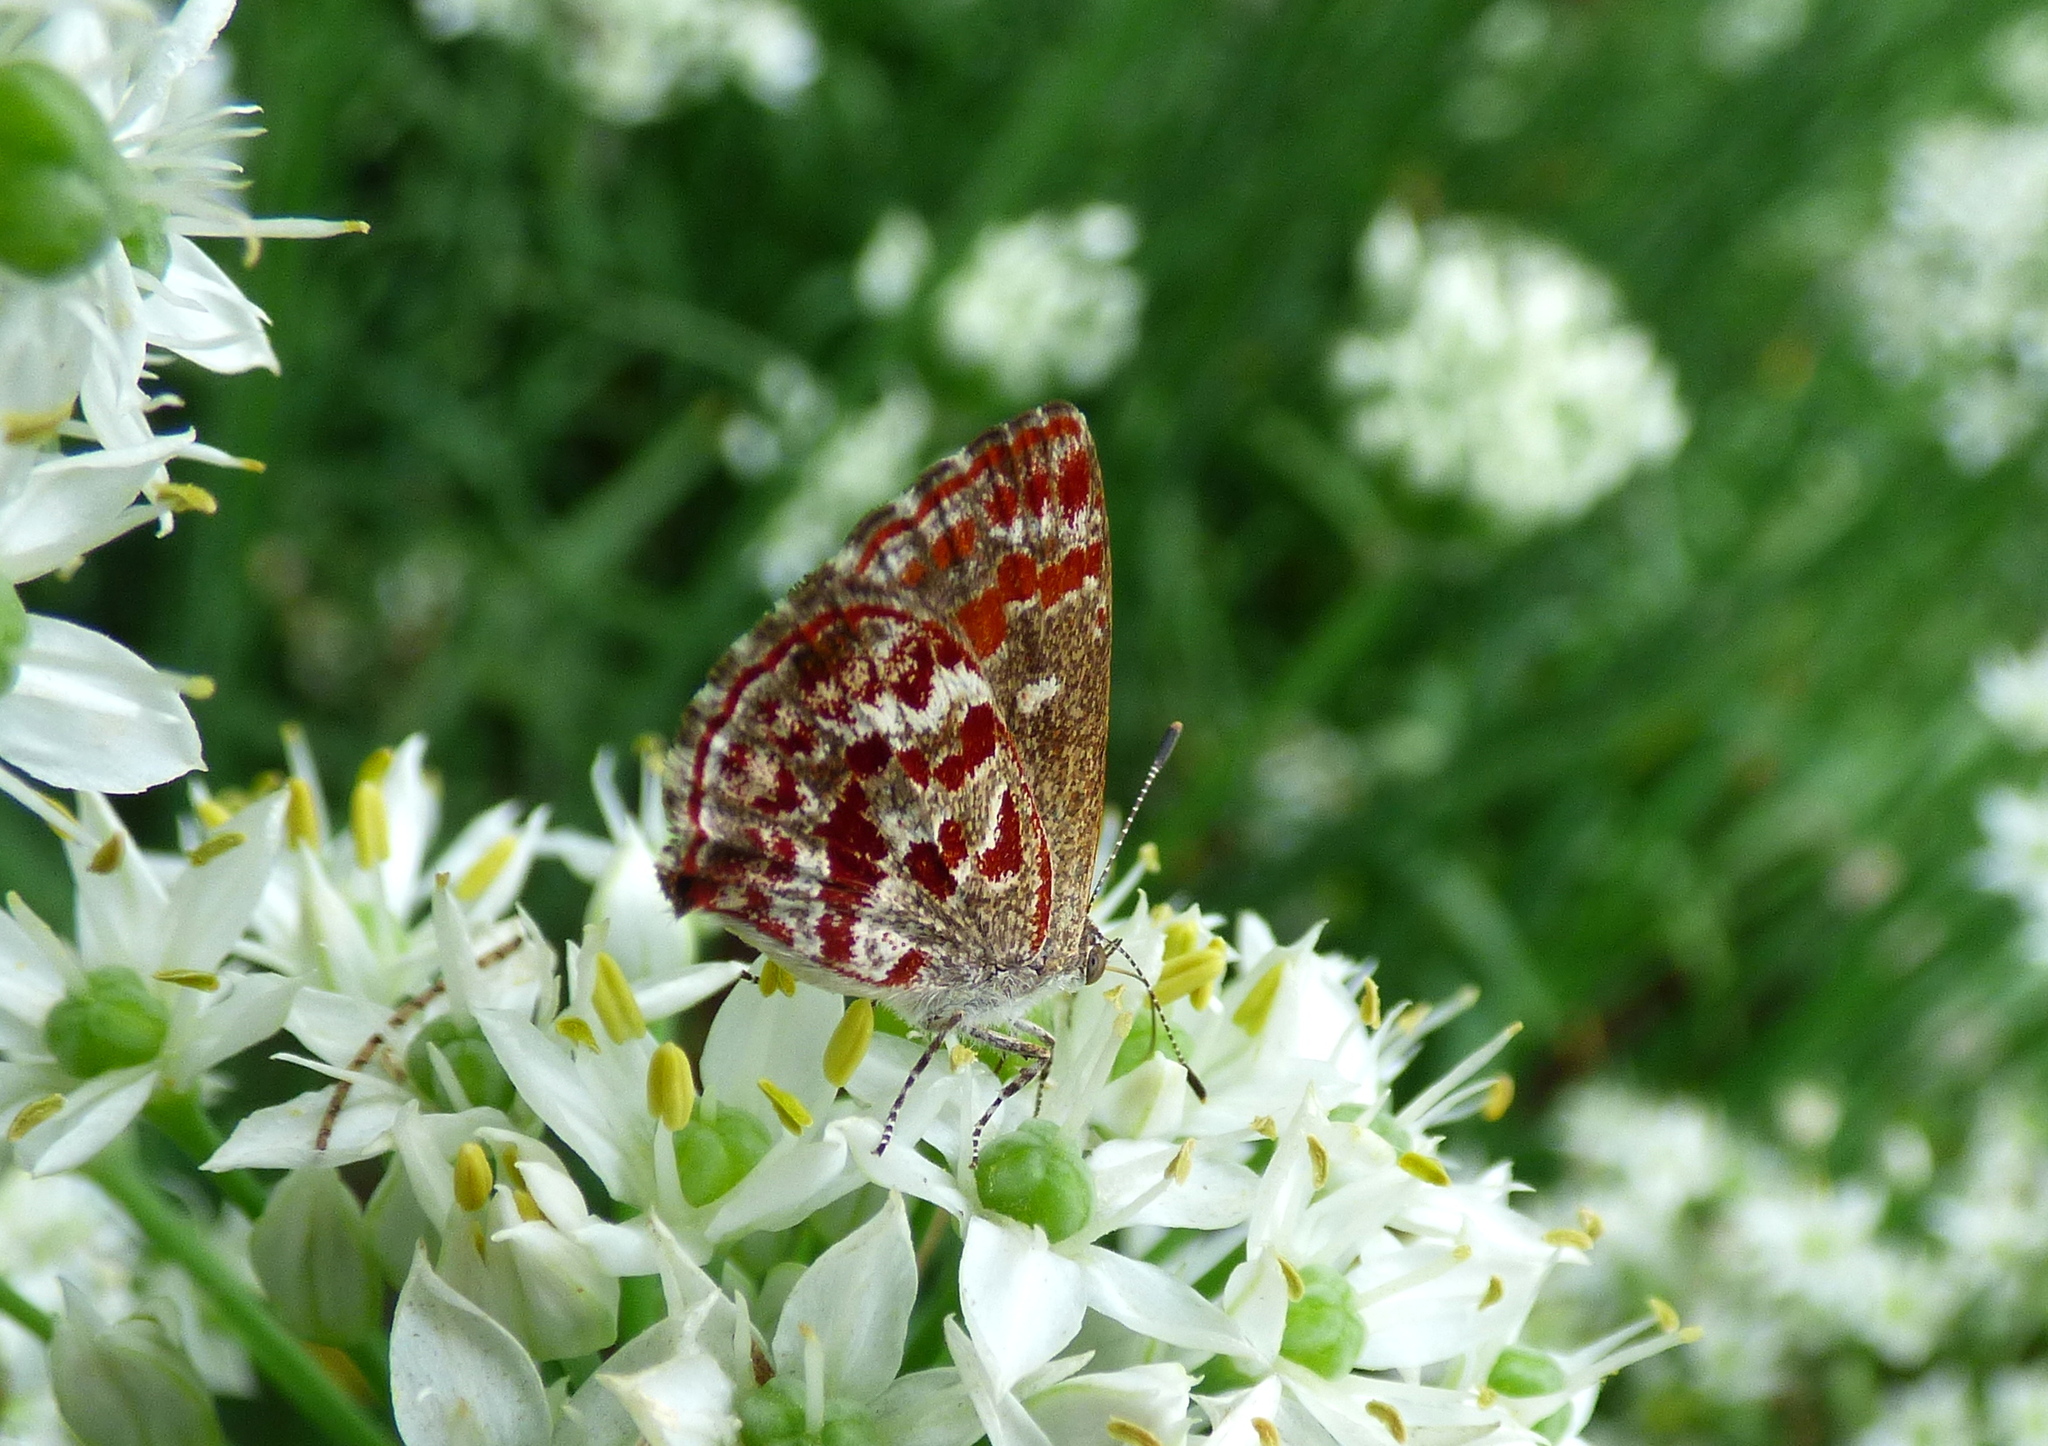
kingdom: Animalia
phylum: Arthropoda
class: Insecta
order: Lepidoptera
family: Lycaenidae
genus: Ministrymon
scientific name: Ministrymon
